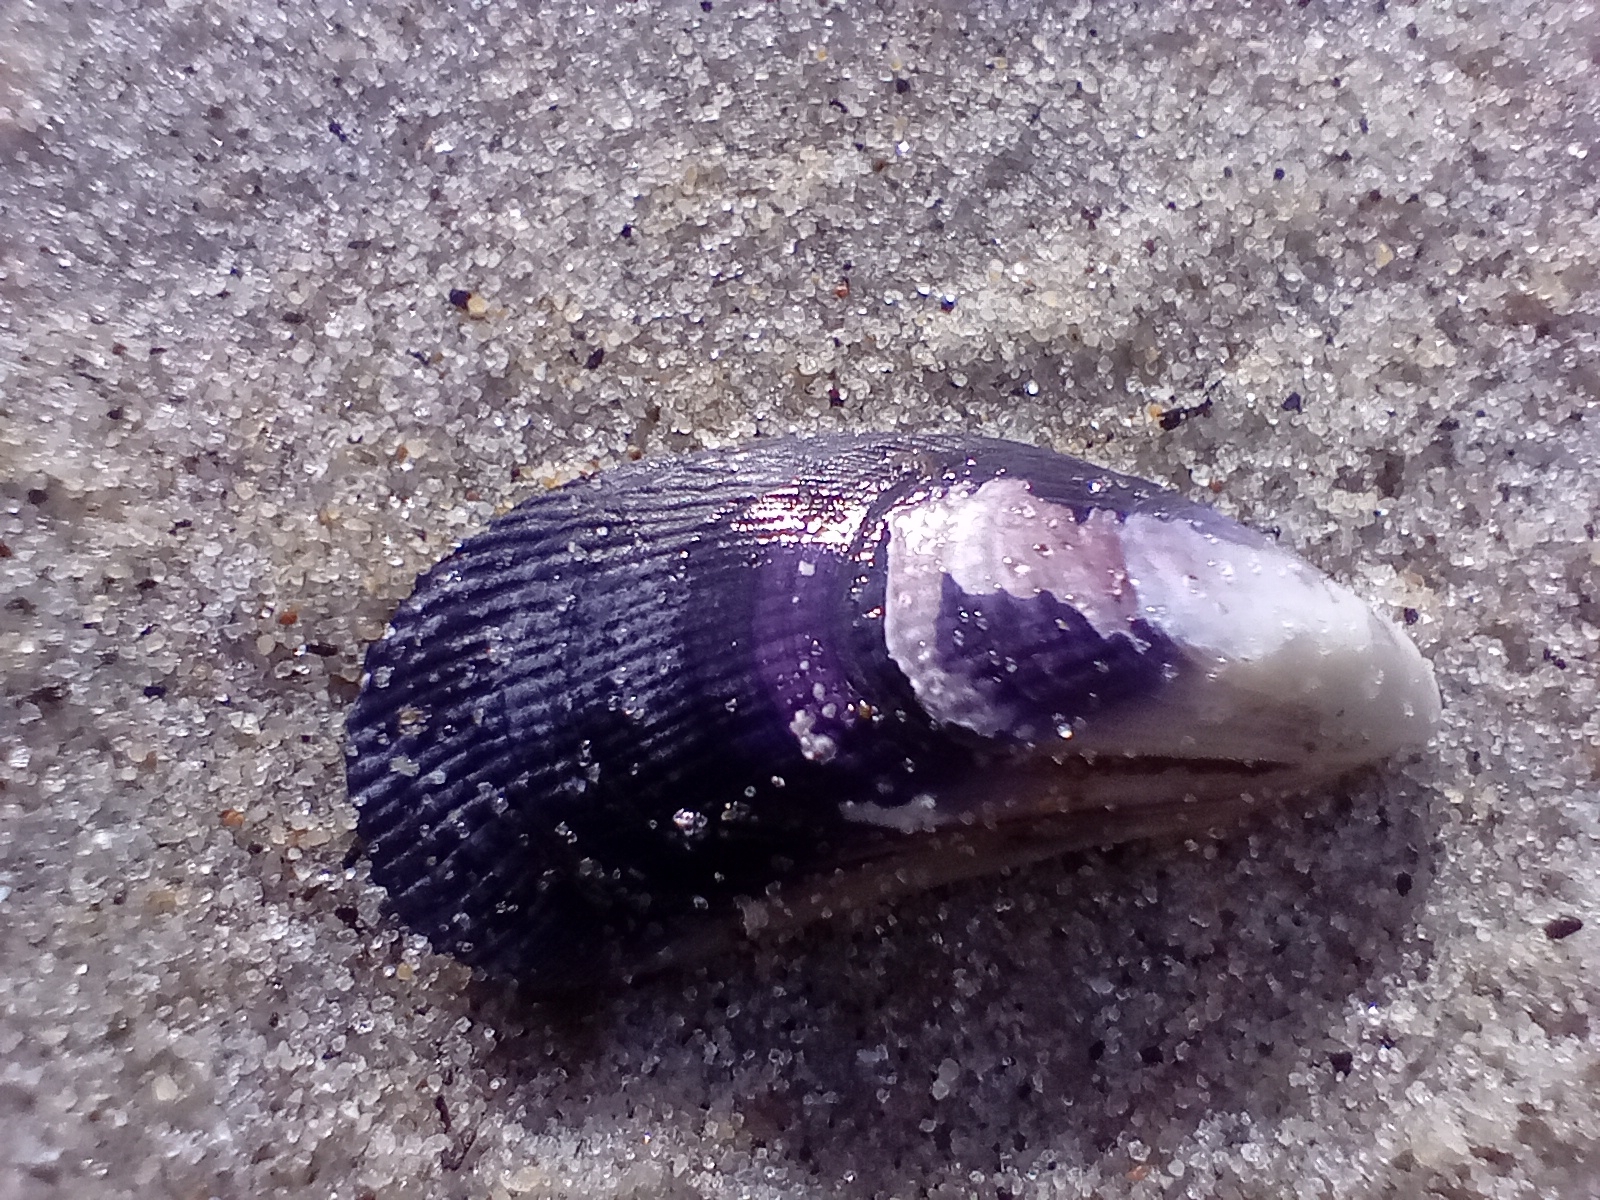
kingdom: Animalia
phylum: Mollusca
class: Bivalvia
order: Mytilida
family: Mytilidae
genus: Aulacomya
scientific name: Aulacomya maoriana
